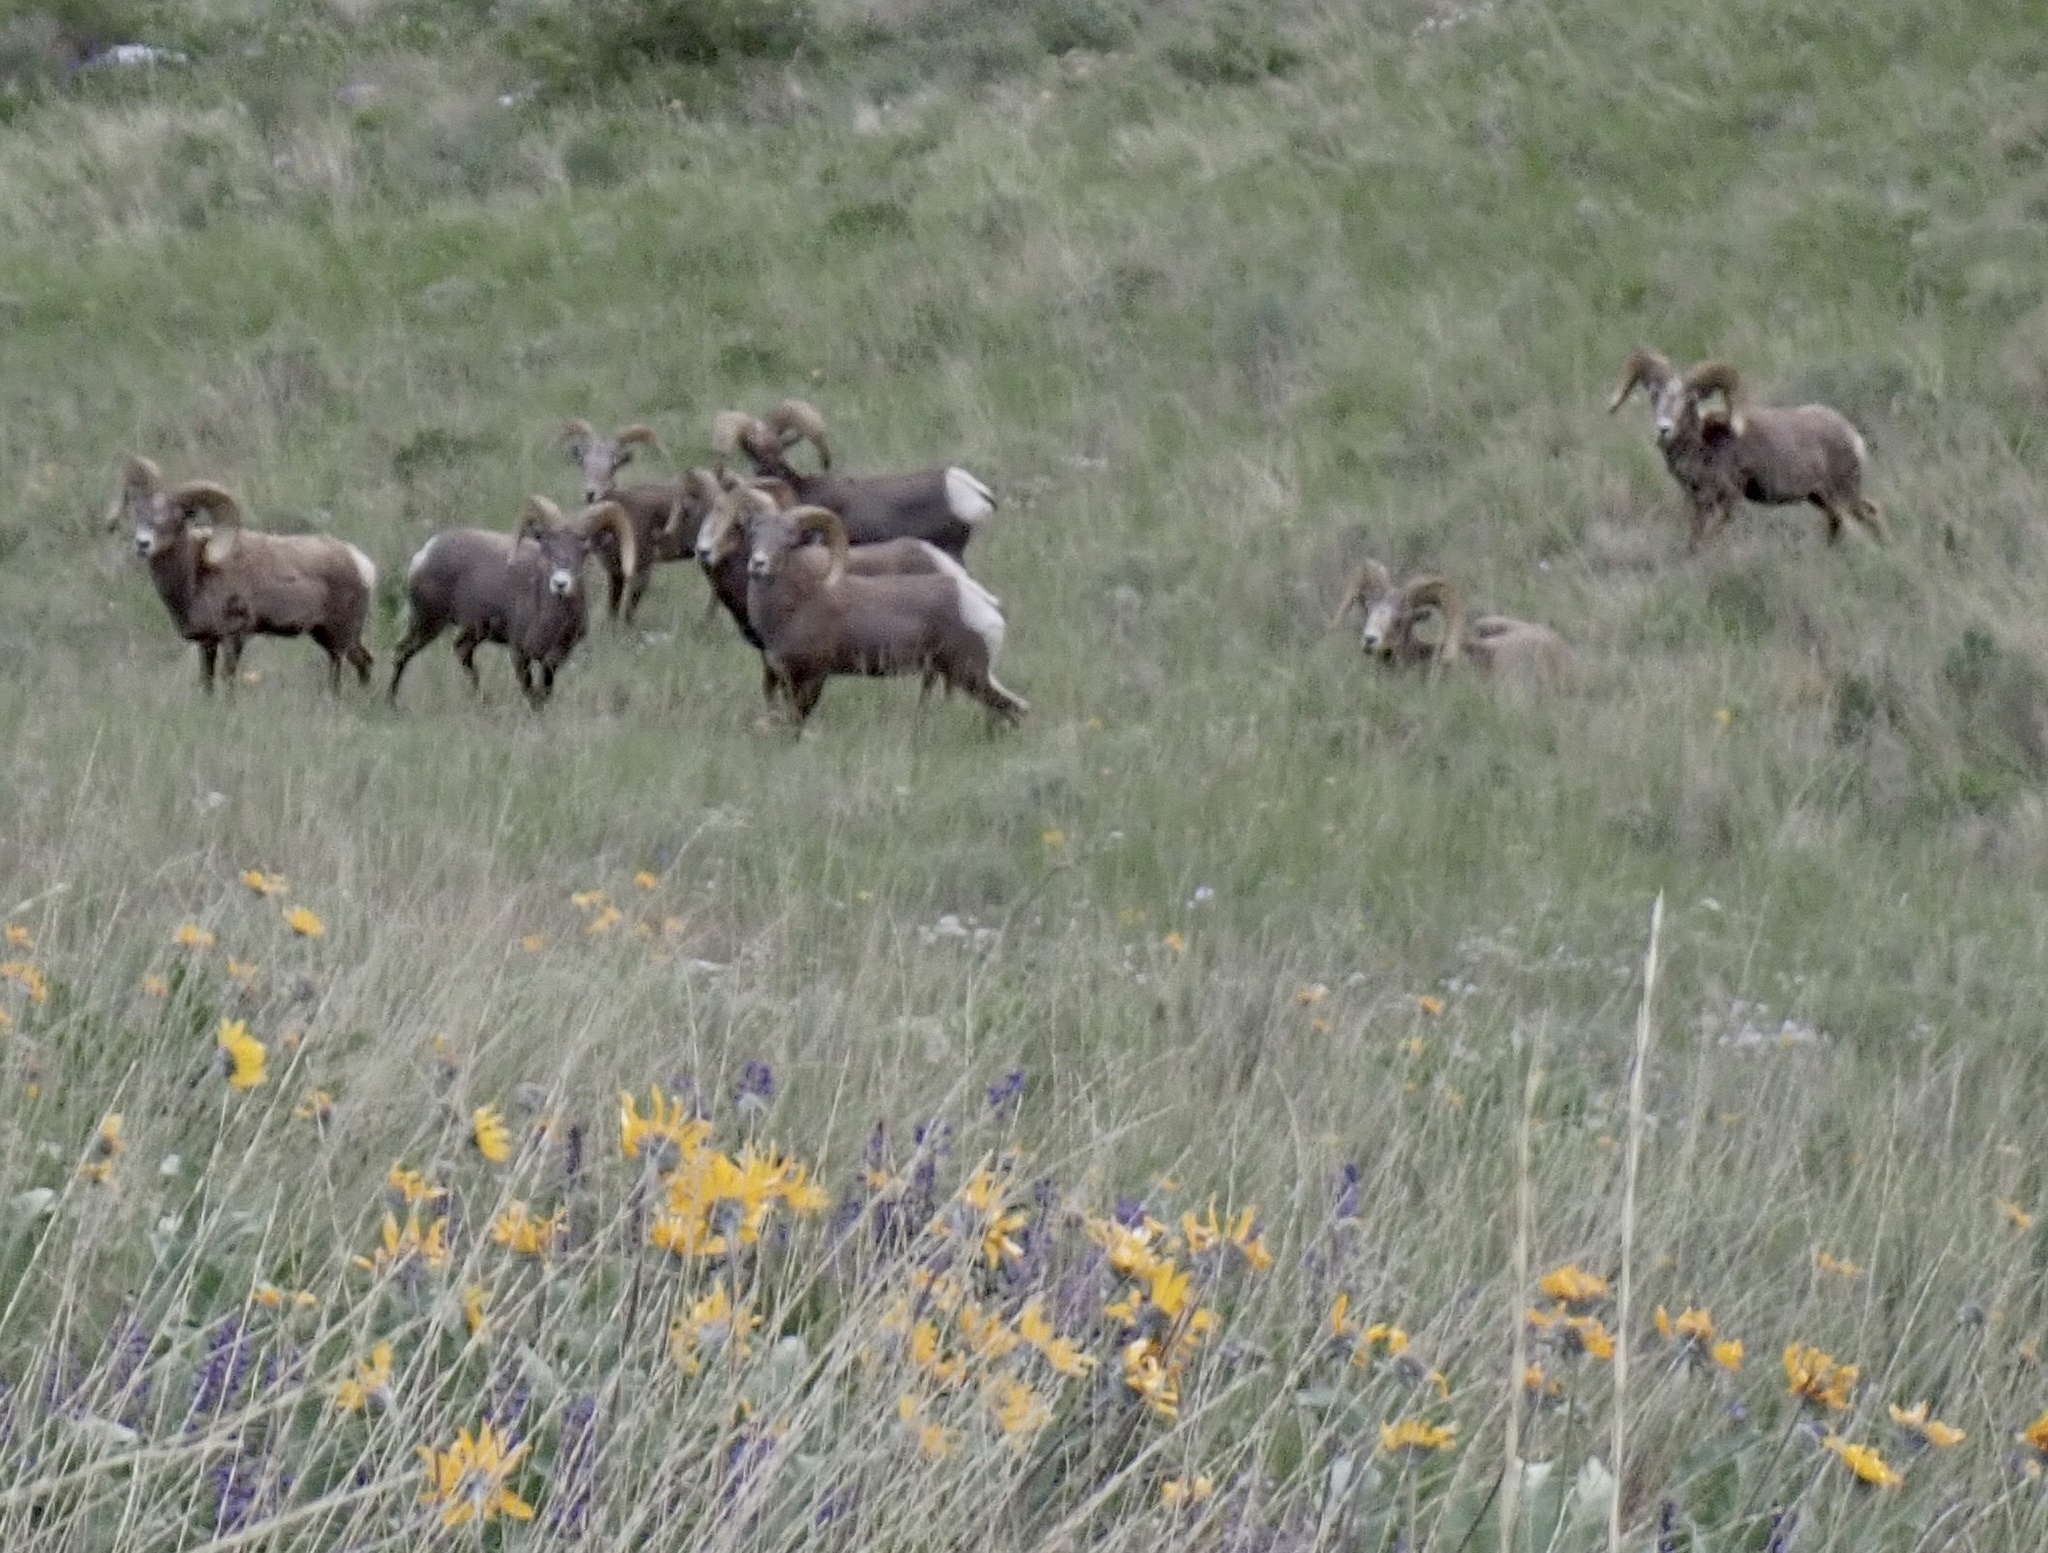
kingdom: Animalia
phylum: Chordata
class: Mammalia
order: Artiodactyla
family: Bovidae
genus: Ovis
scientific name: Ovis canadensis
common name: Bighorn sheep
